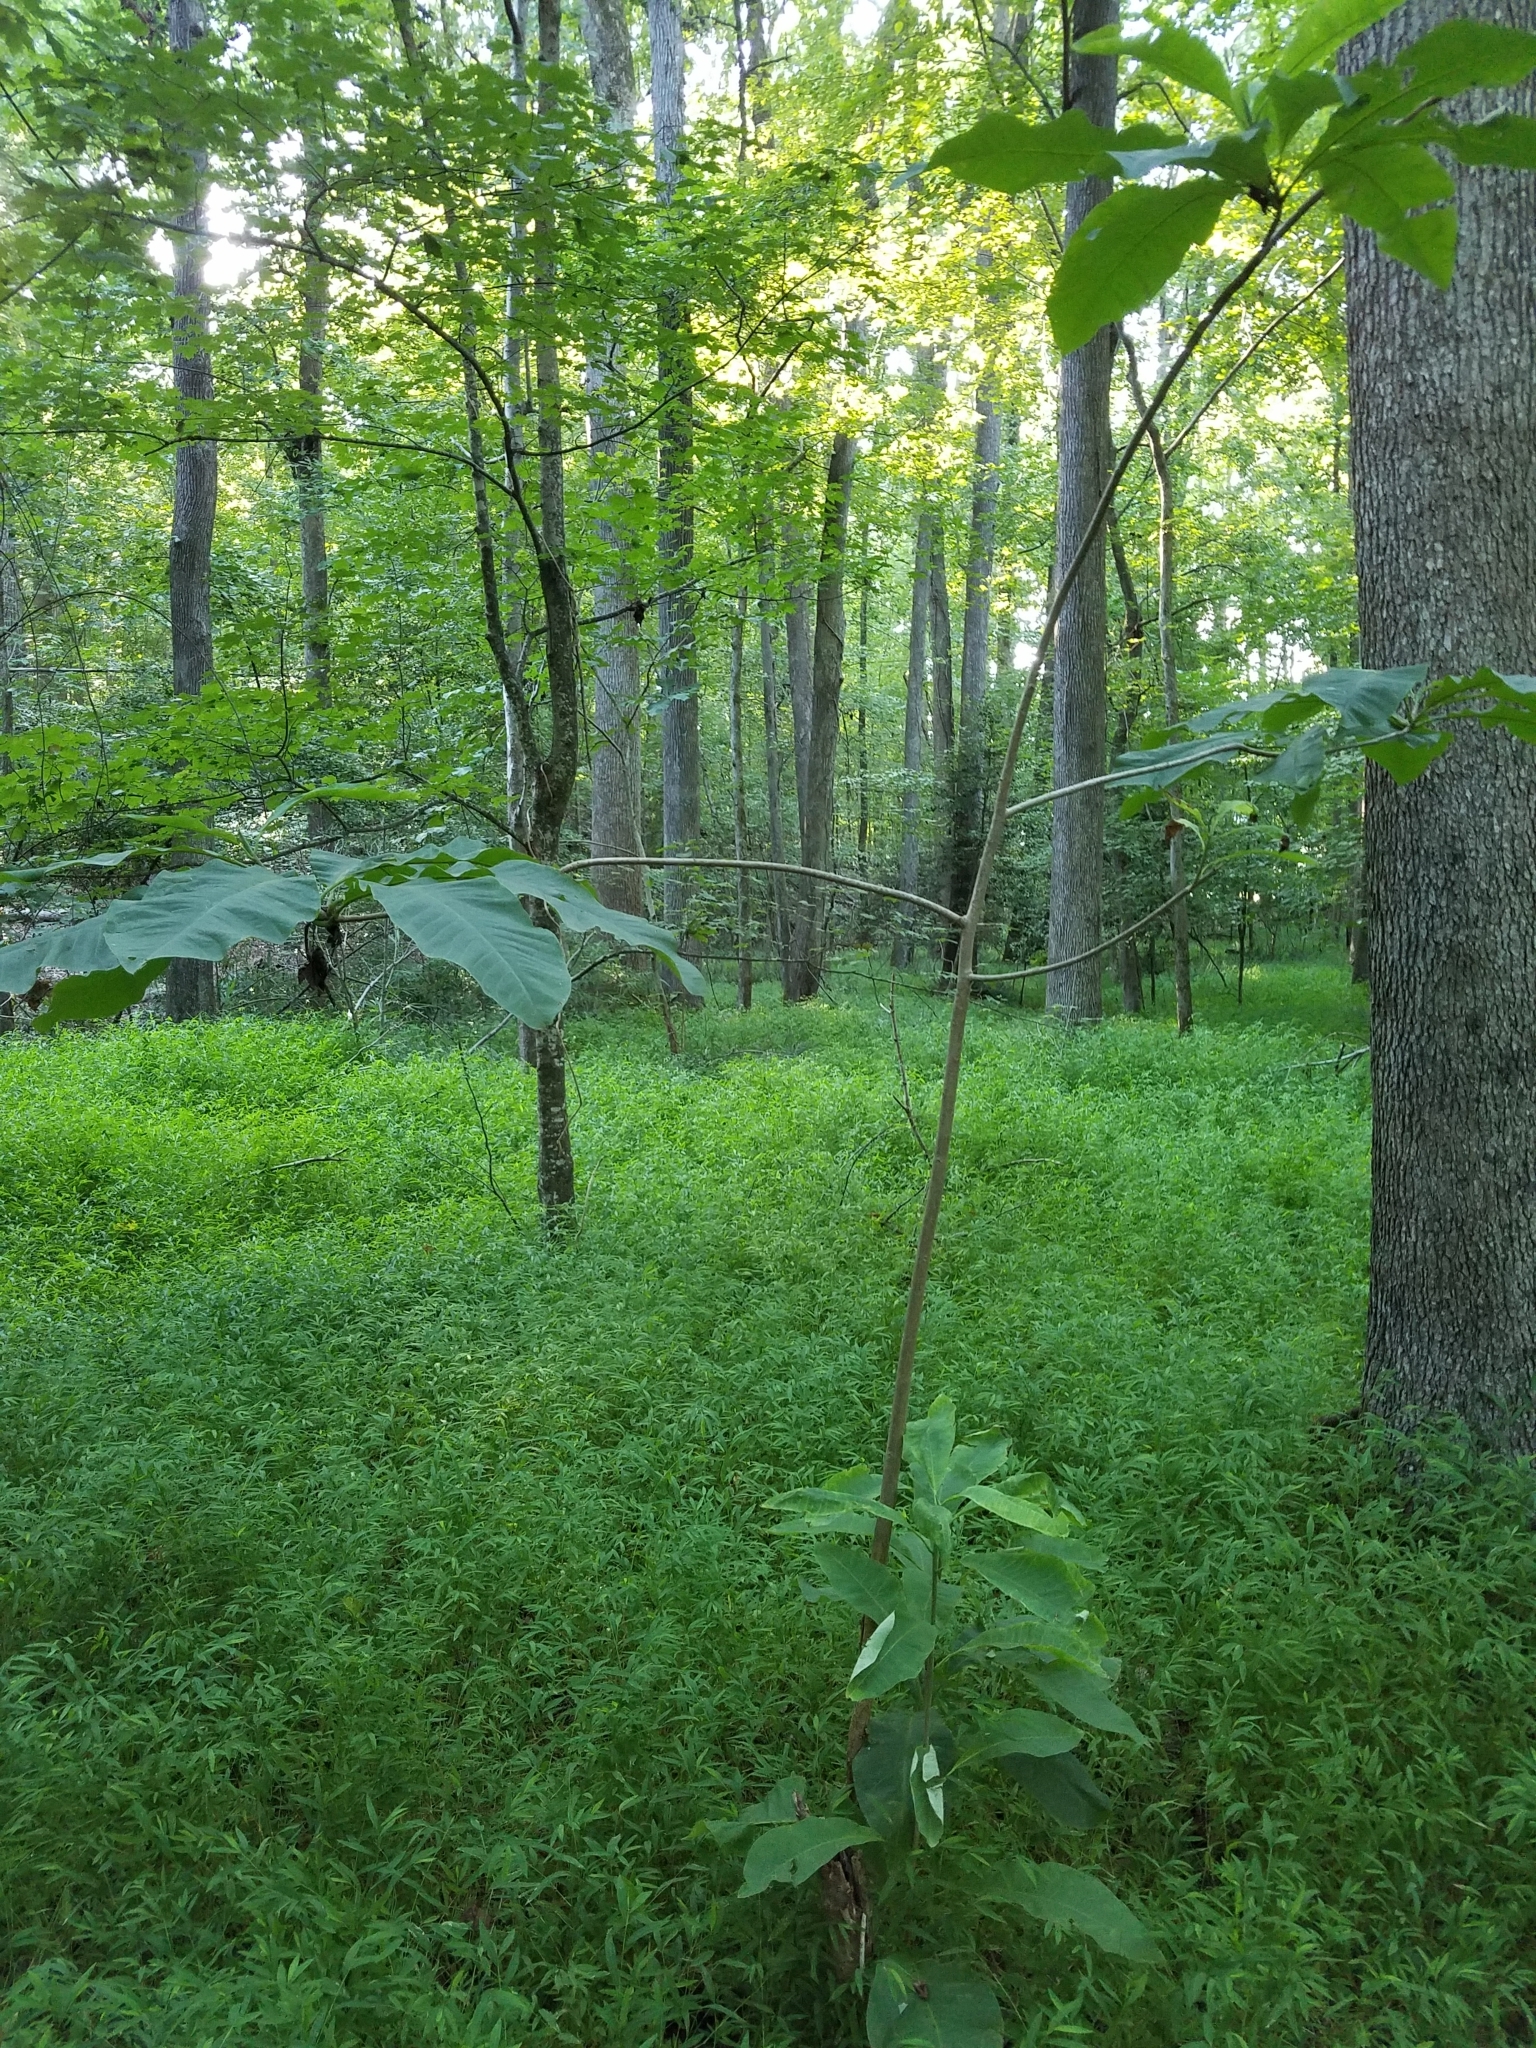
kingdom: Plantae
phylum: Tracheophyta
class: Magnoliopsida
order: Magnoliales
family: Magnoliaceae
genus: Magnolia
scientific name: Magnolia tripetala
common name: Umbrella magnolia
